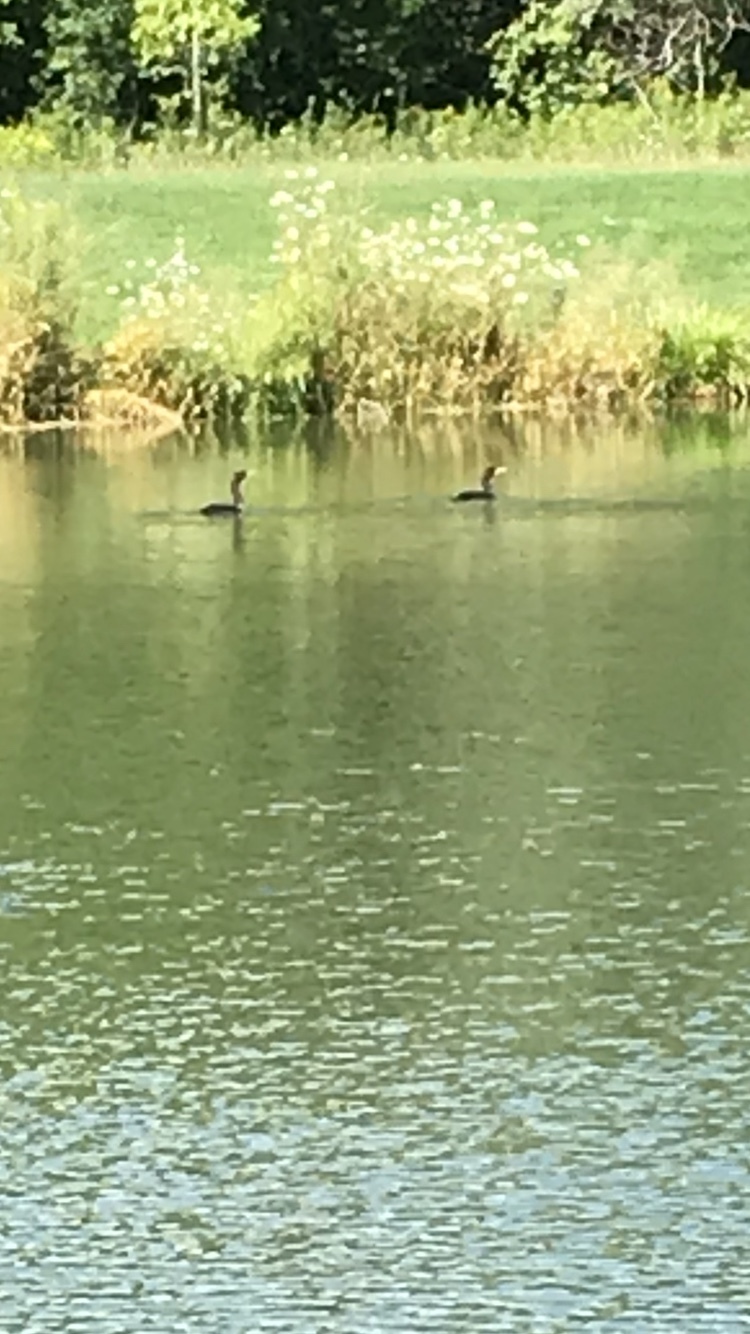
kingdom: Animalia
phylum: Chordata
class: Aves
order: Suliformes
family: Phalacrocoracidae
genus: Phalacrocorax
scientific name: Phalacrocorax auritus
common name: Double-crested cormorant
